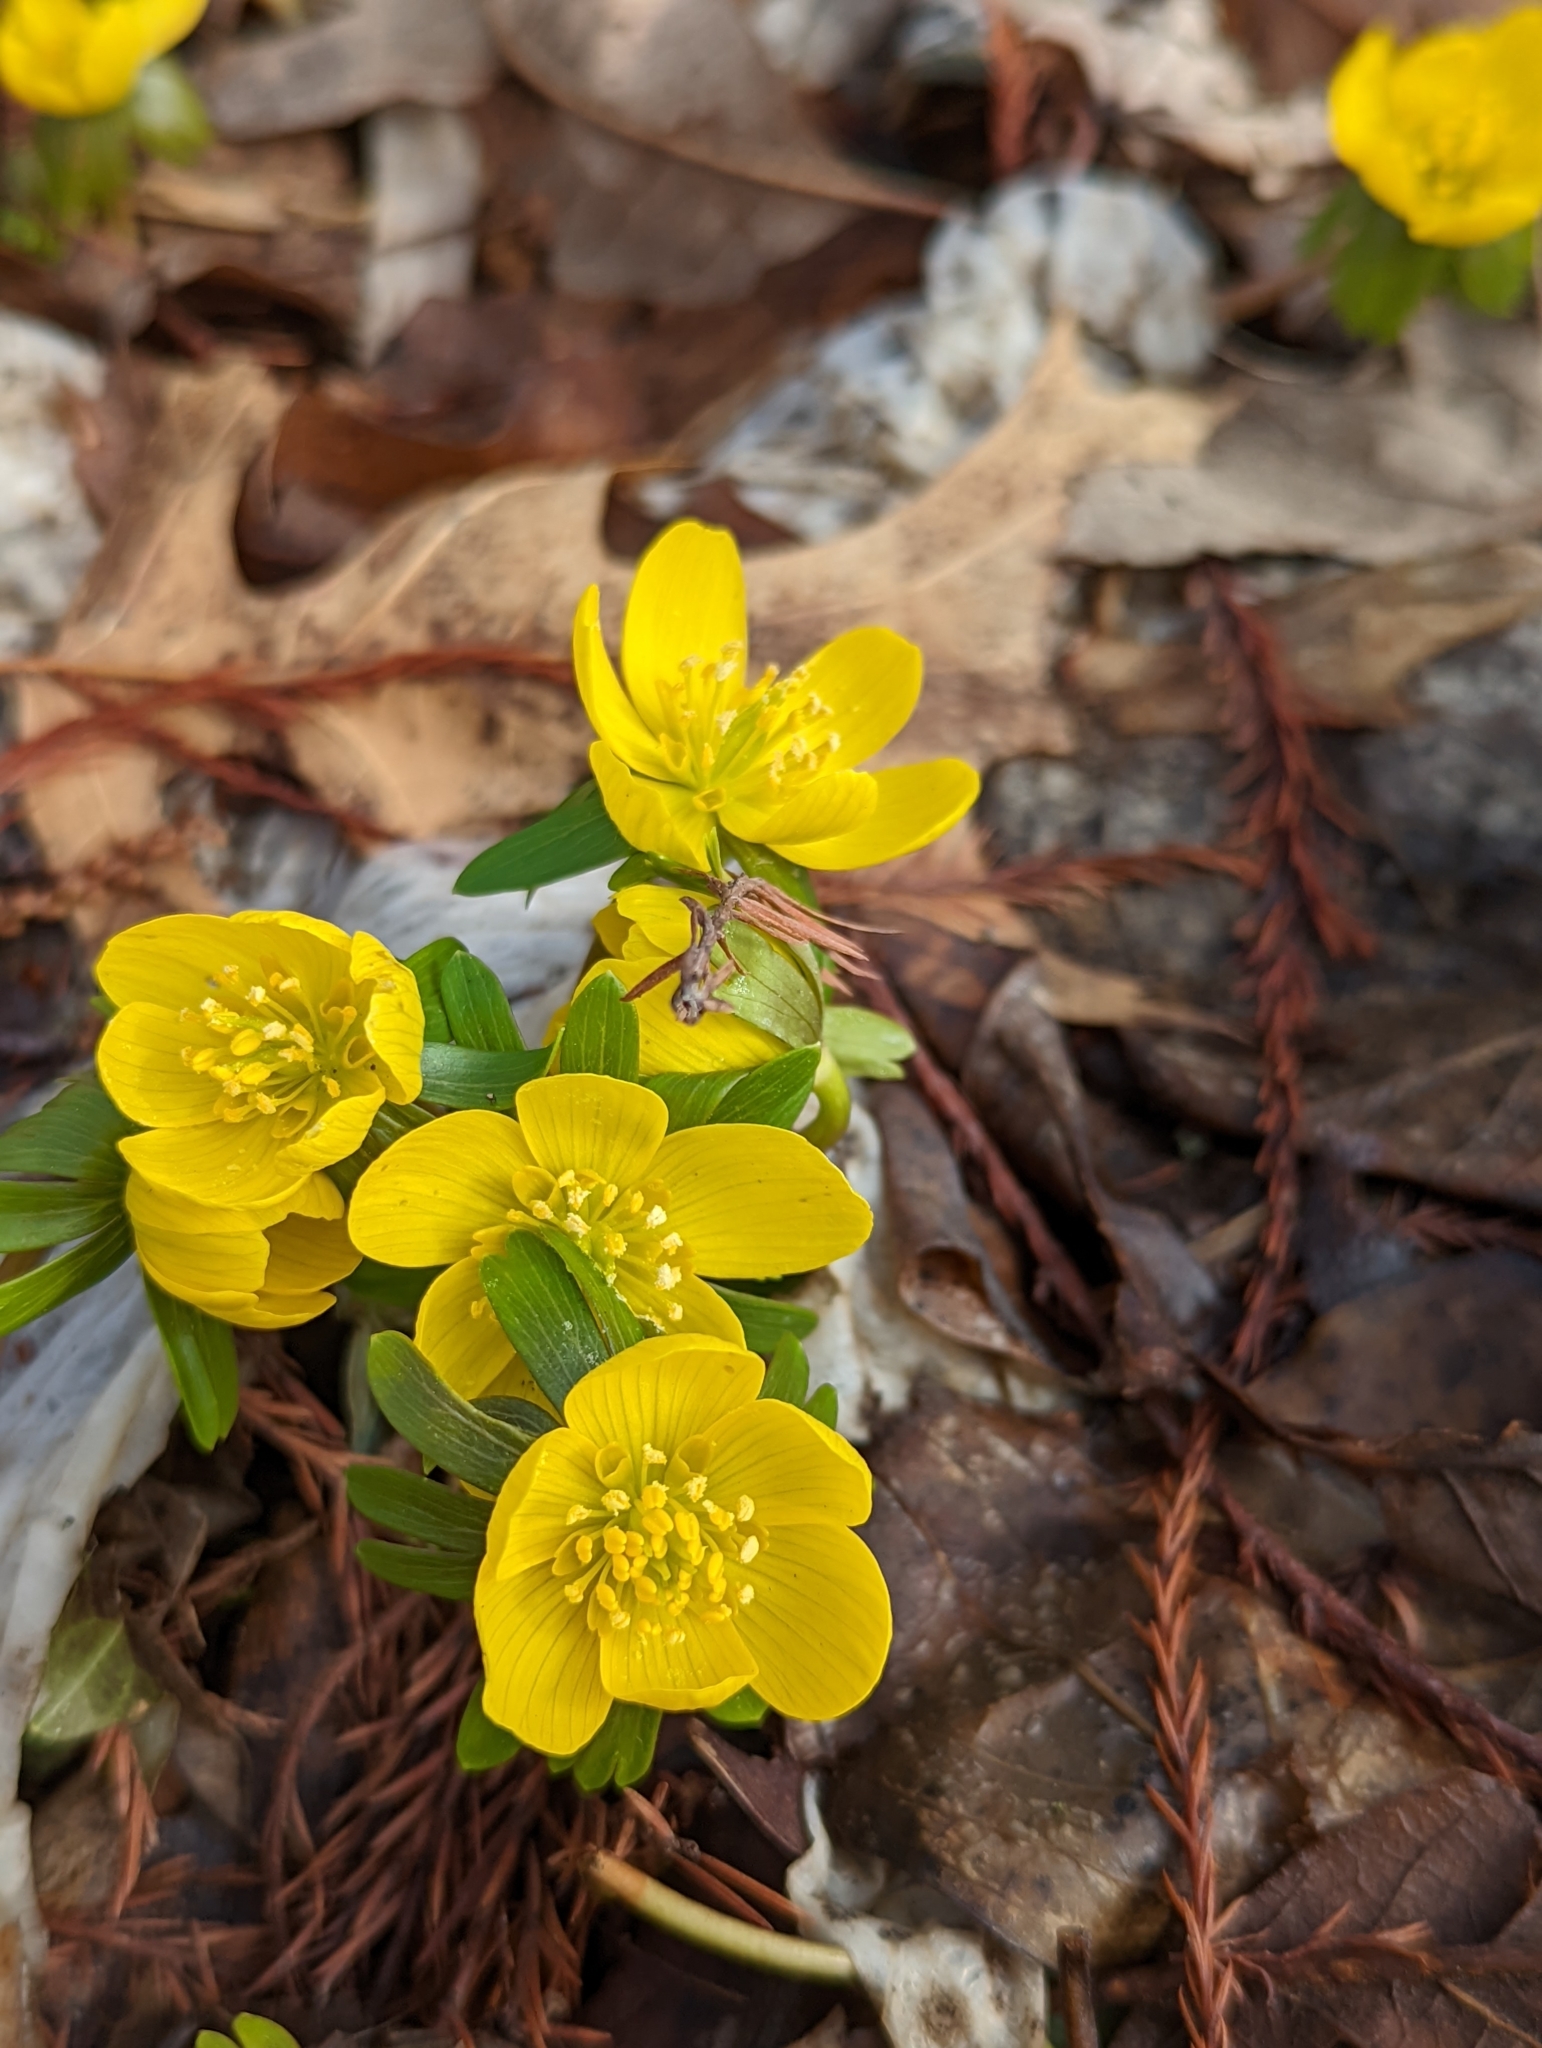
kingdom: Plantae
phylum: Tracheophyta
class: Magnoliopsida
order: Ranunculales
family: Ranunculaceae
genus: Eranthis
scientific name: Eranthis hyemalis
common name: Winter aconite
